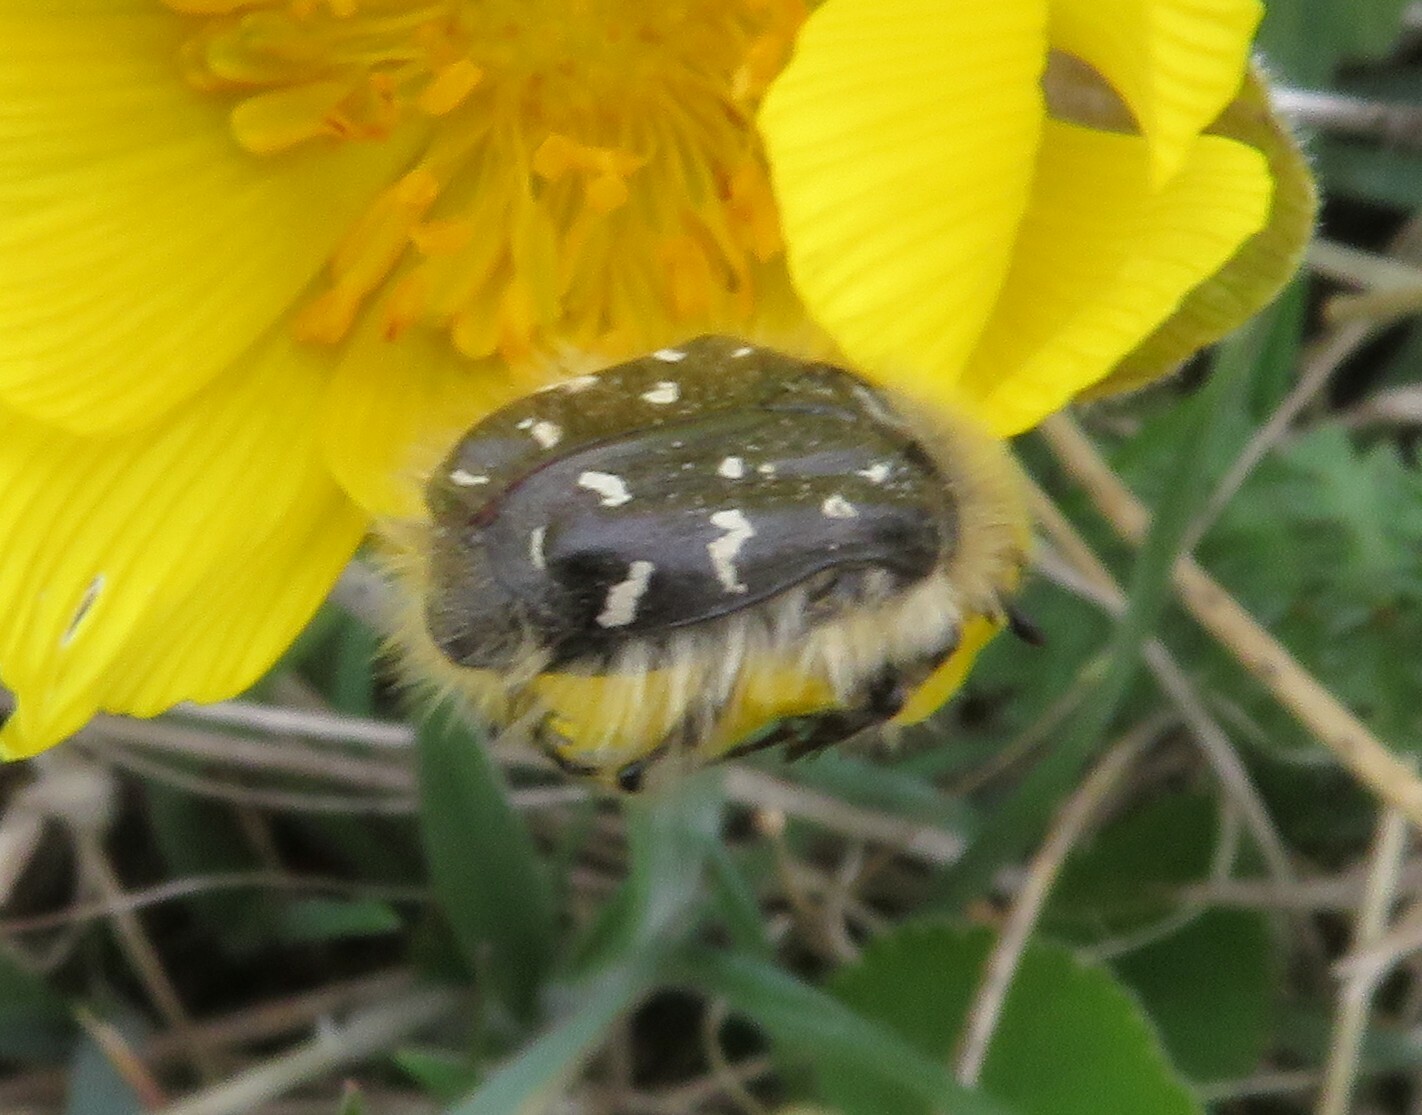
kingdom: Animalia
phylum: Arthropoda
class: Insecta
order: Coleoptera
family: Scarabaeidae
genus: Tropinota
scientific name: Tropinota hirta
